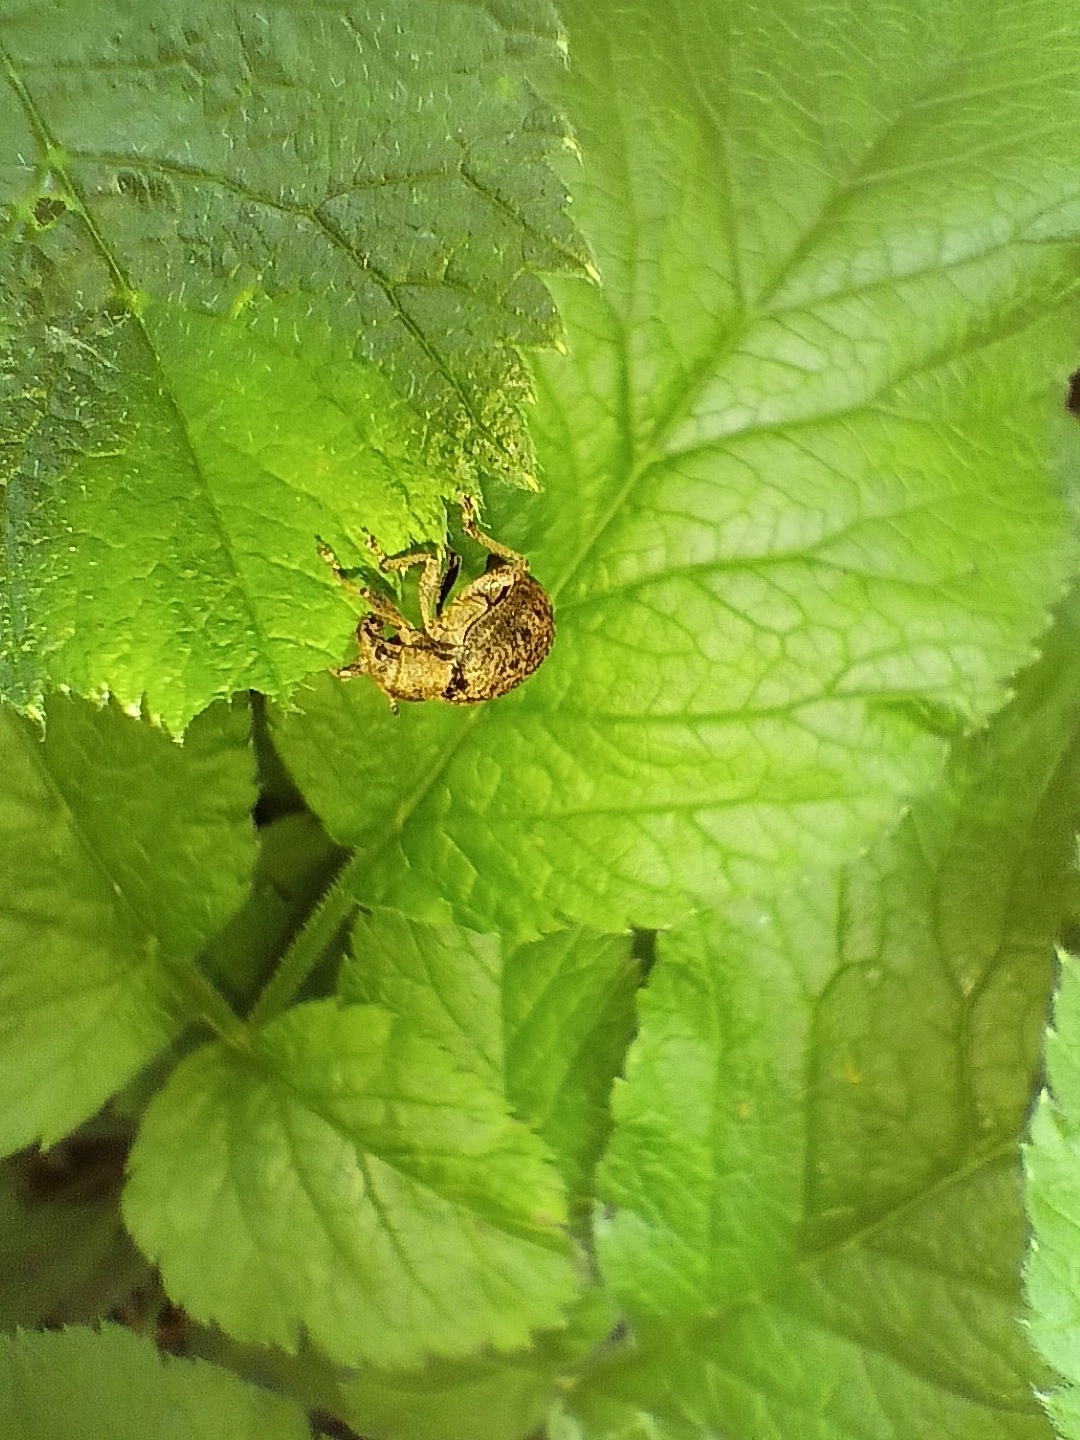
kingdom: Animalia
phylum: Arthropoda
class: Insecta
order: Coleoptera
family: Curculionidae
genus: Liophloeus
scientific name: Liophloeus tessulatus
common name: Weevil
